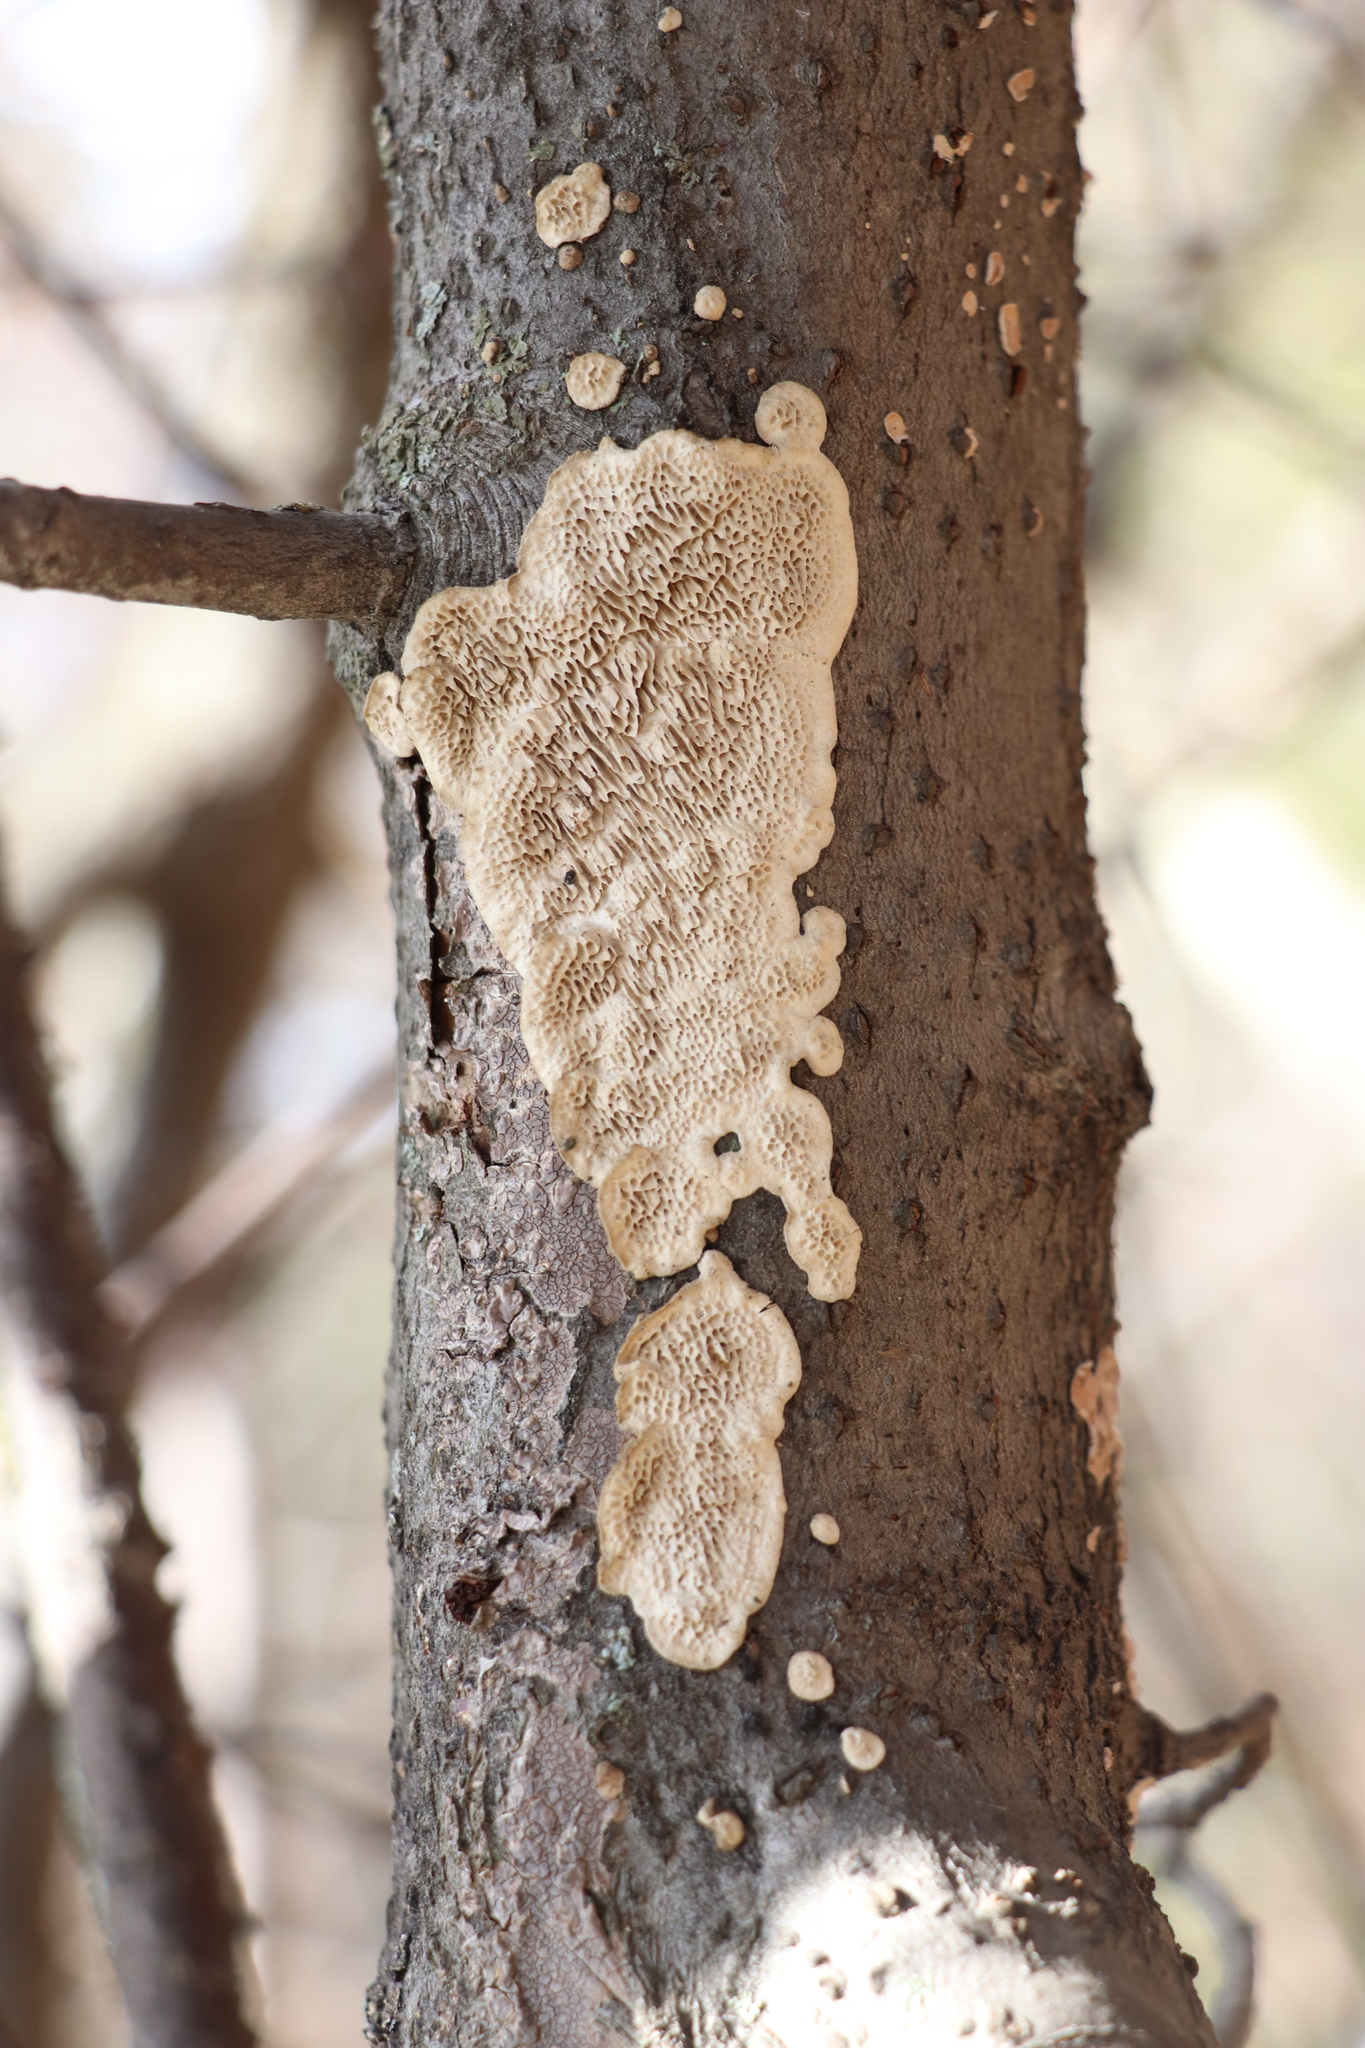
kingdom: Fungi
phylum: Basidiomycota
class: Agaricomycetes
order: Polyporales
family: Polyporaceae
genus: Podofomes
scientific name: Podofomes mollis
